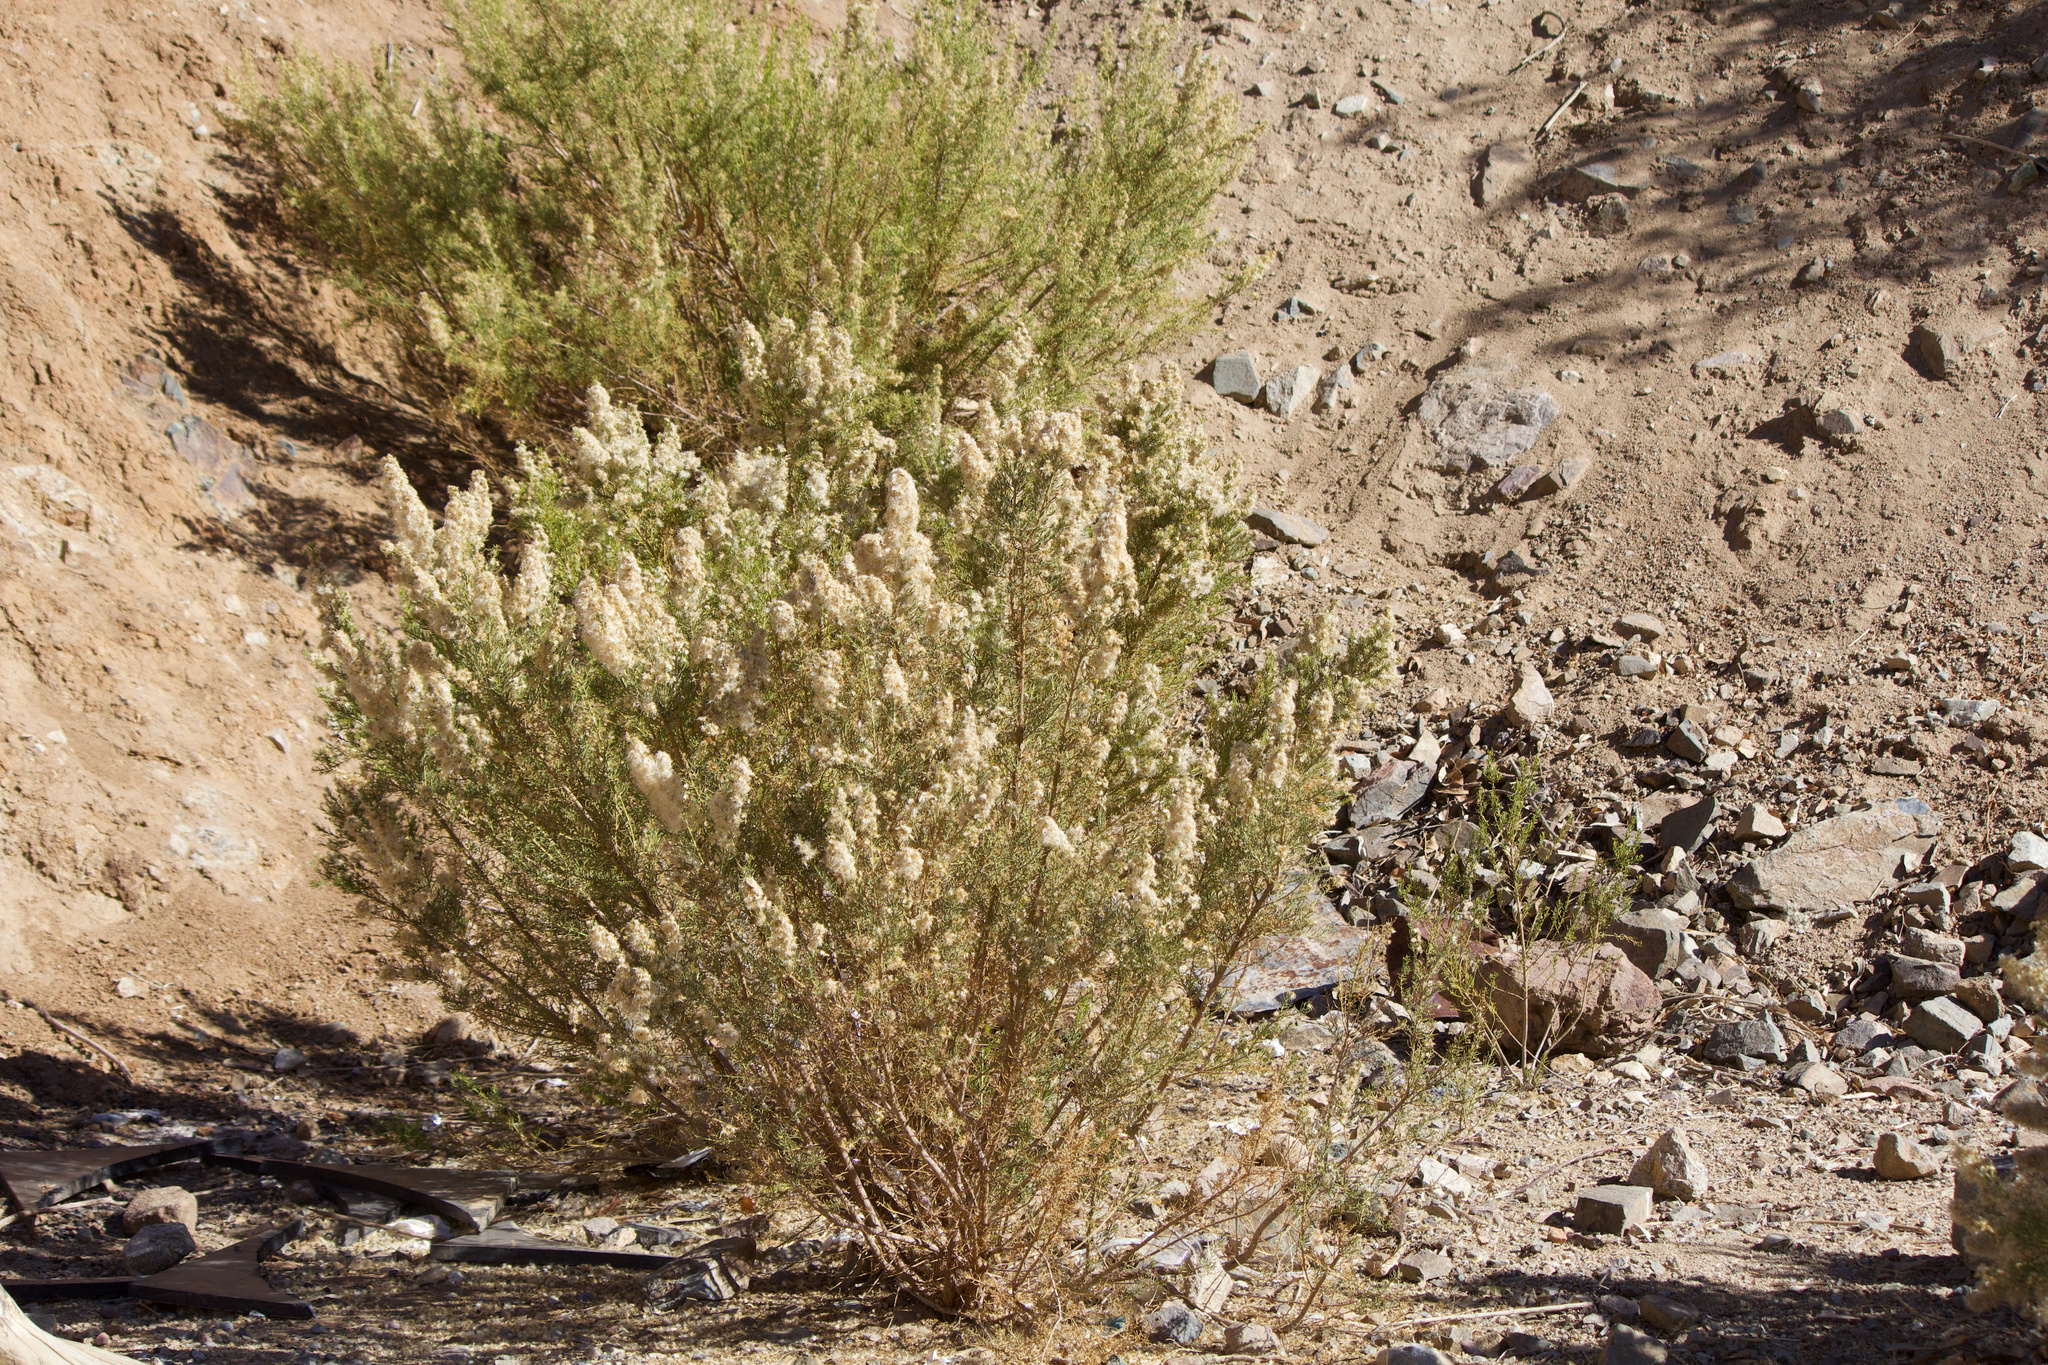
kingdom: Plantae
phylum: Tracheophyta
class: Magnoliopsida
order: Asterales
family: Asteraceae
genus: Baccharis
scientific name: Baccharis linearis
